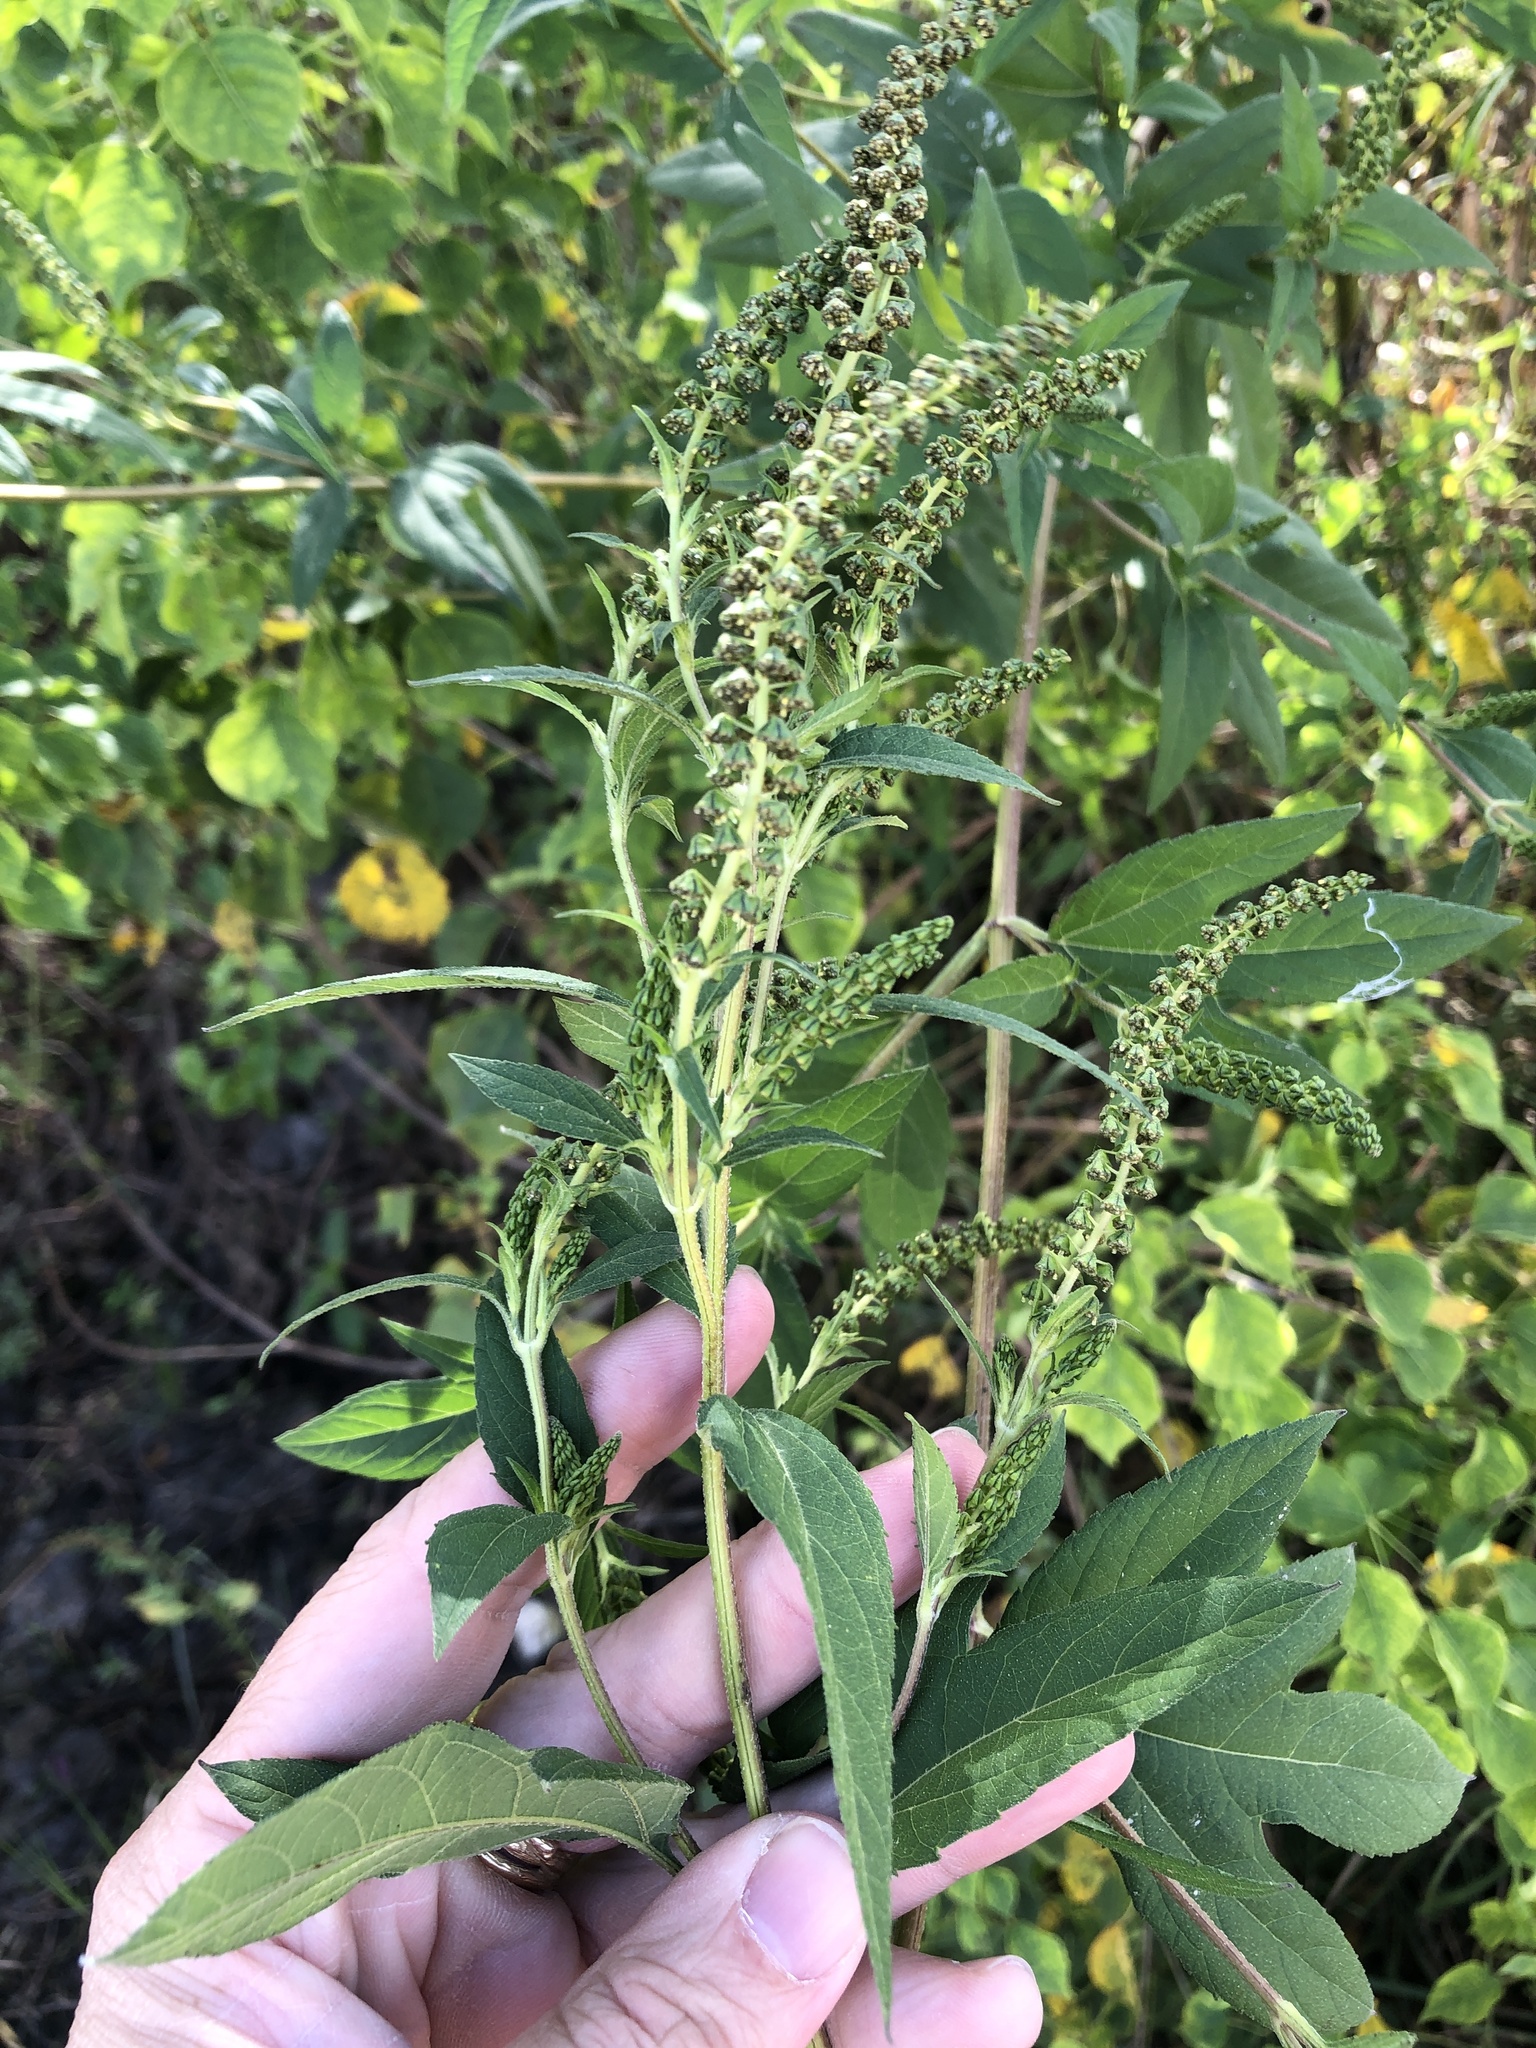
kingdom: Plantae
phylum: Tracheophyta
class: Magnoliopsida
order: Asterales
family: Asteraceae
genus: Ambrosia
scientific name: Ambrosia trifida
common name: Giant ragweed
